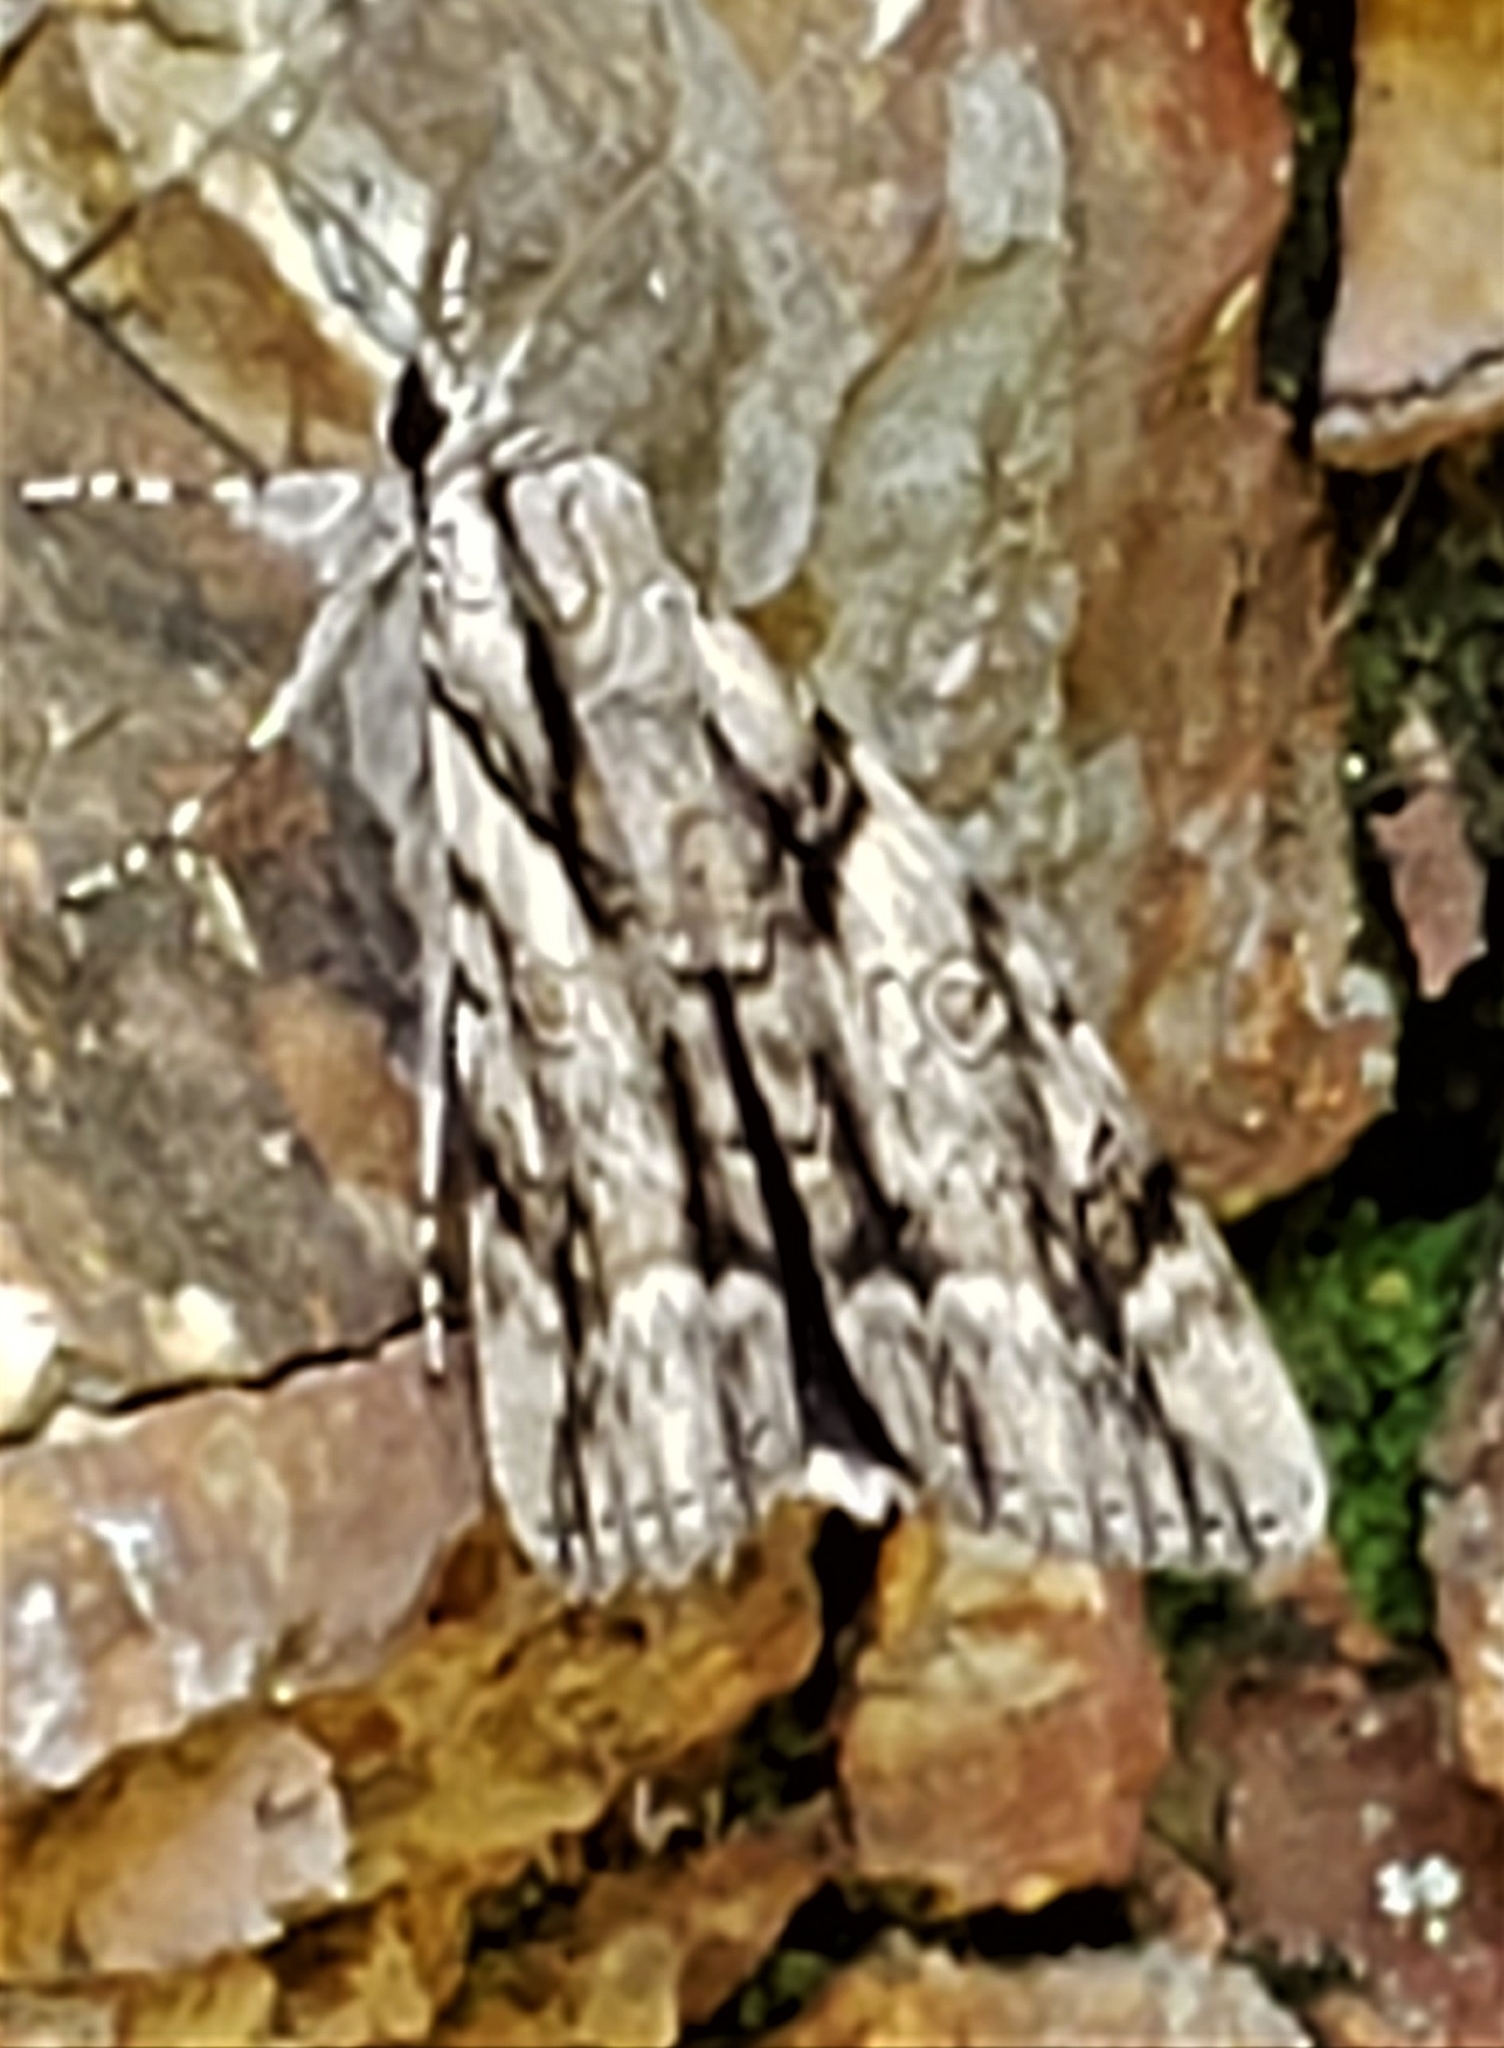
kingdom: Animalia
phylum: Arthropoda
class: Insecta
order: Lepidoptera
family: Erebidae
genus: Catocala
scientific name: Catocala vidua
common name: The widow
